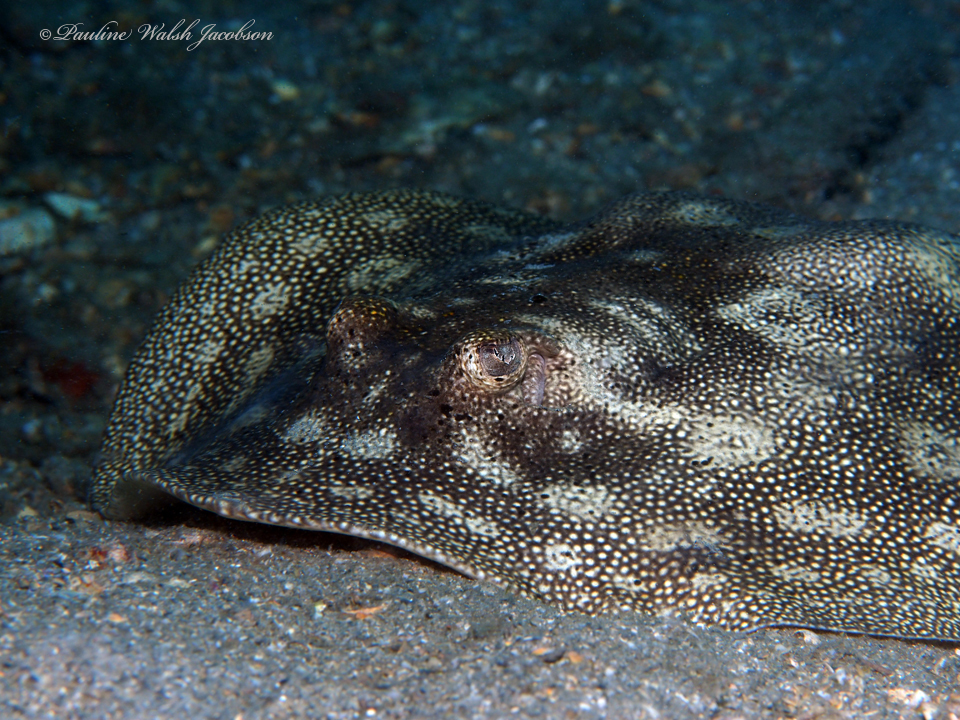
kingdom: Animalia
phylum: Chordata
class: Elasmobranchii
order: Myliobatiformes
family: Urotrygonidae
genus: Urobatis
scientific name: Urobatis jamaicensis
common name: Yellow stingray
